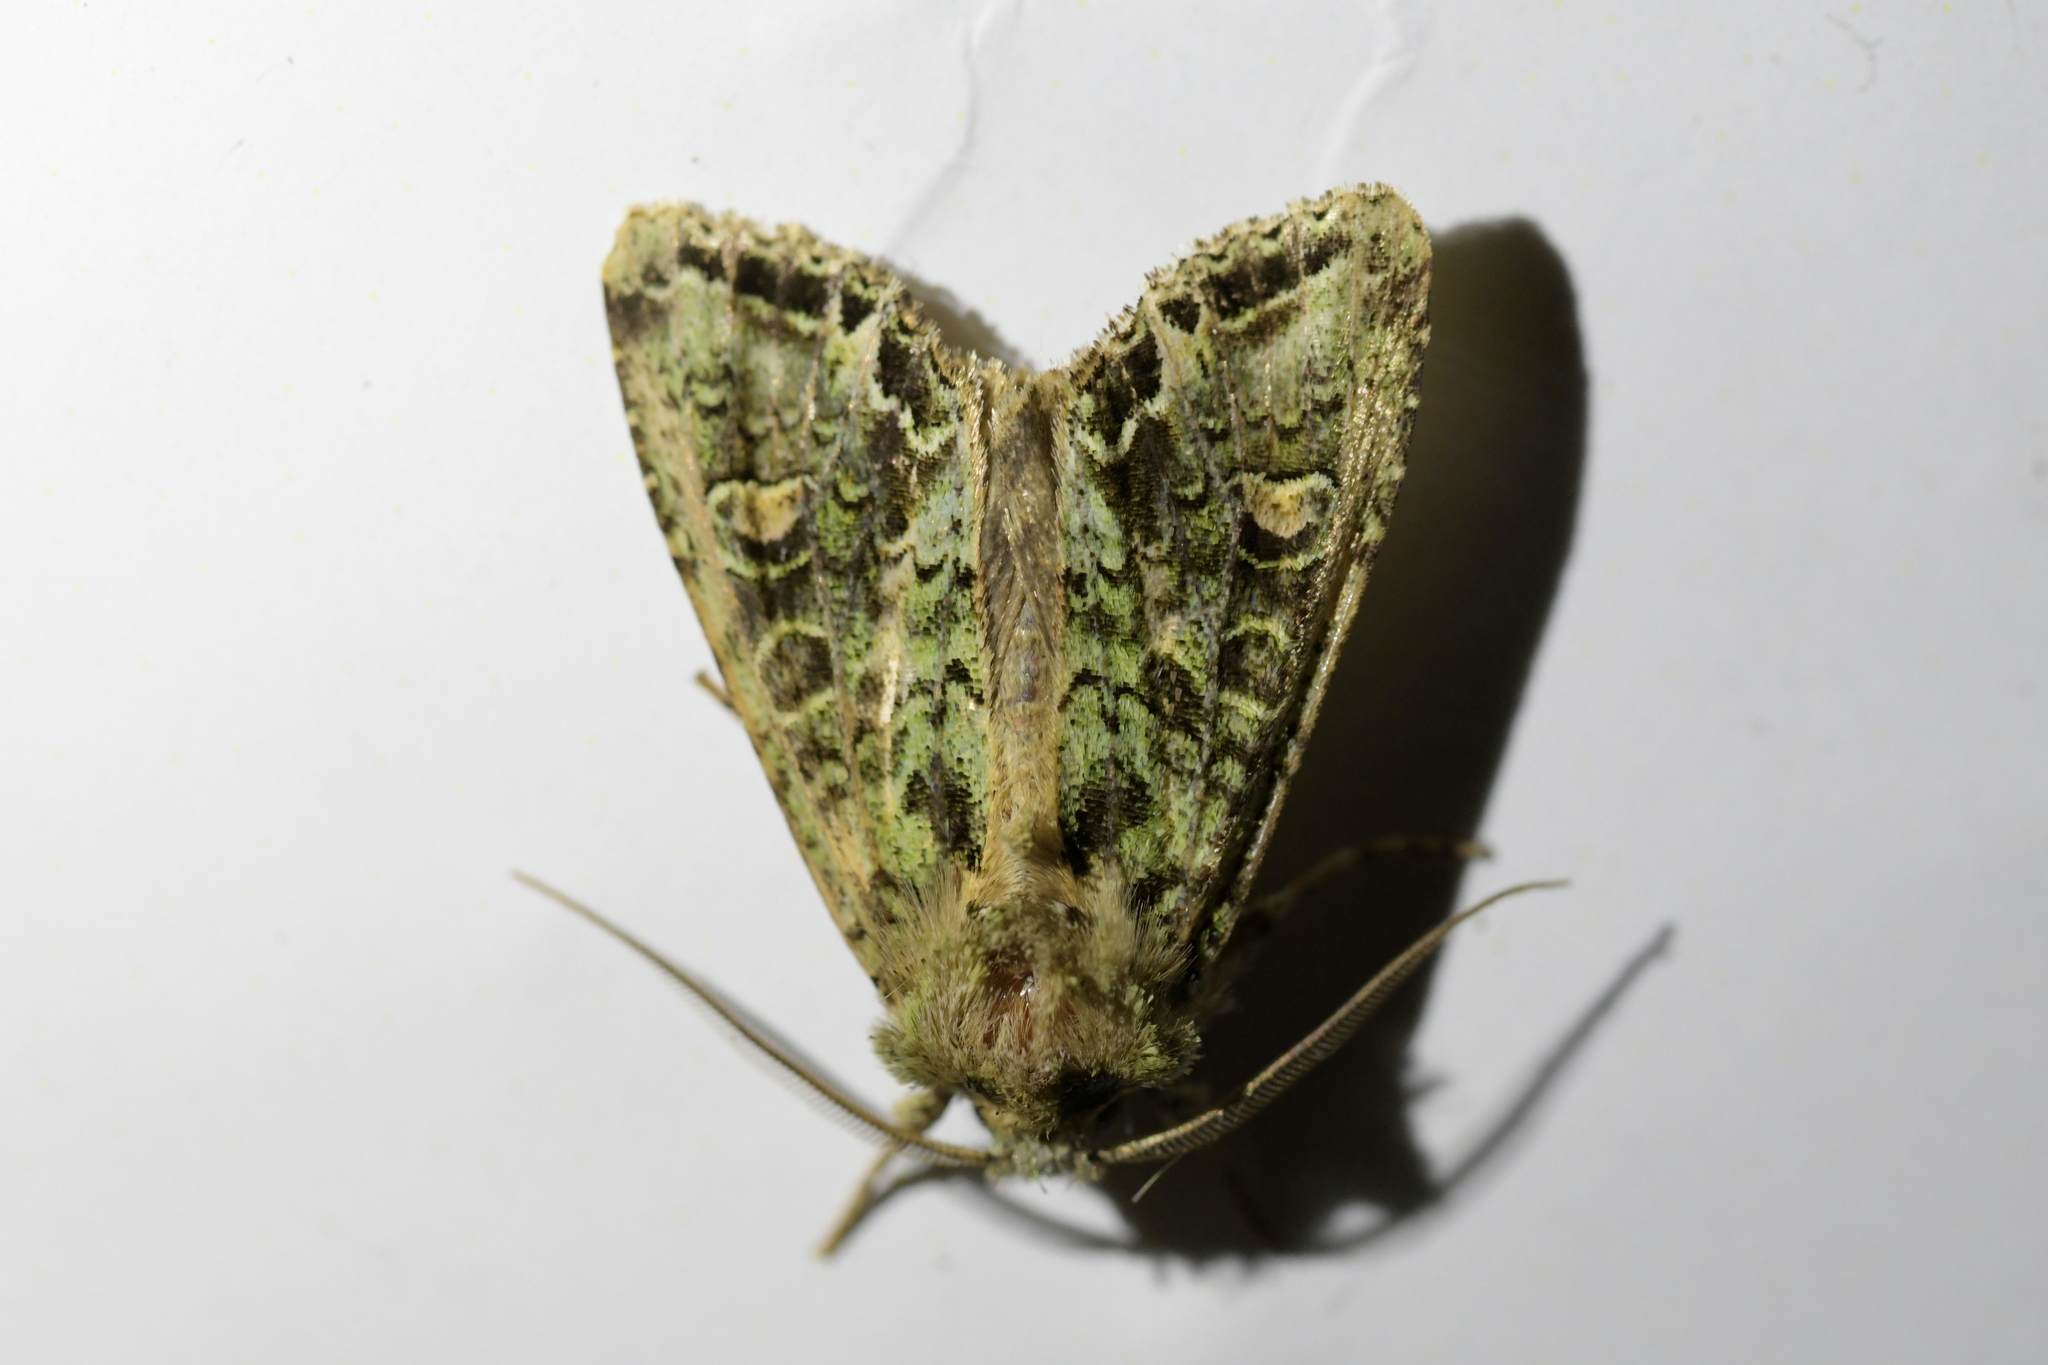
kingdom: Animalia
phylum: Arthropoda
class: Insecta
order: Lepidoptera
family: Noctuidae
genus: Ichneutica
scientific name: Ichneutica
